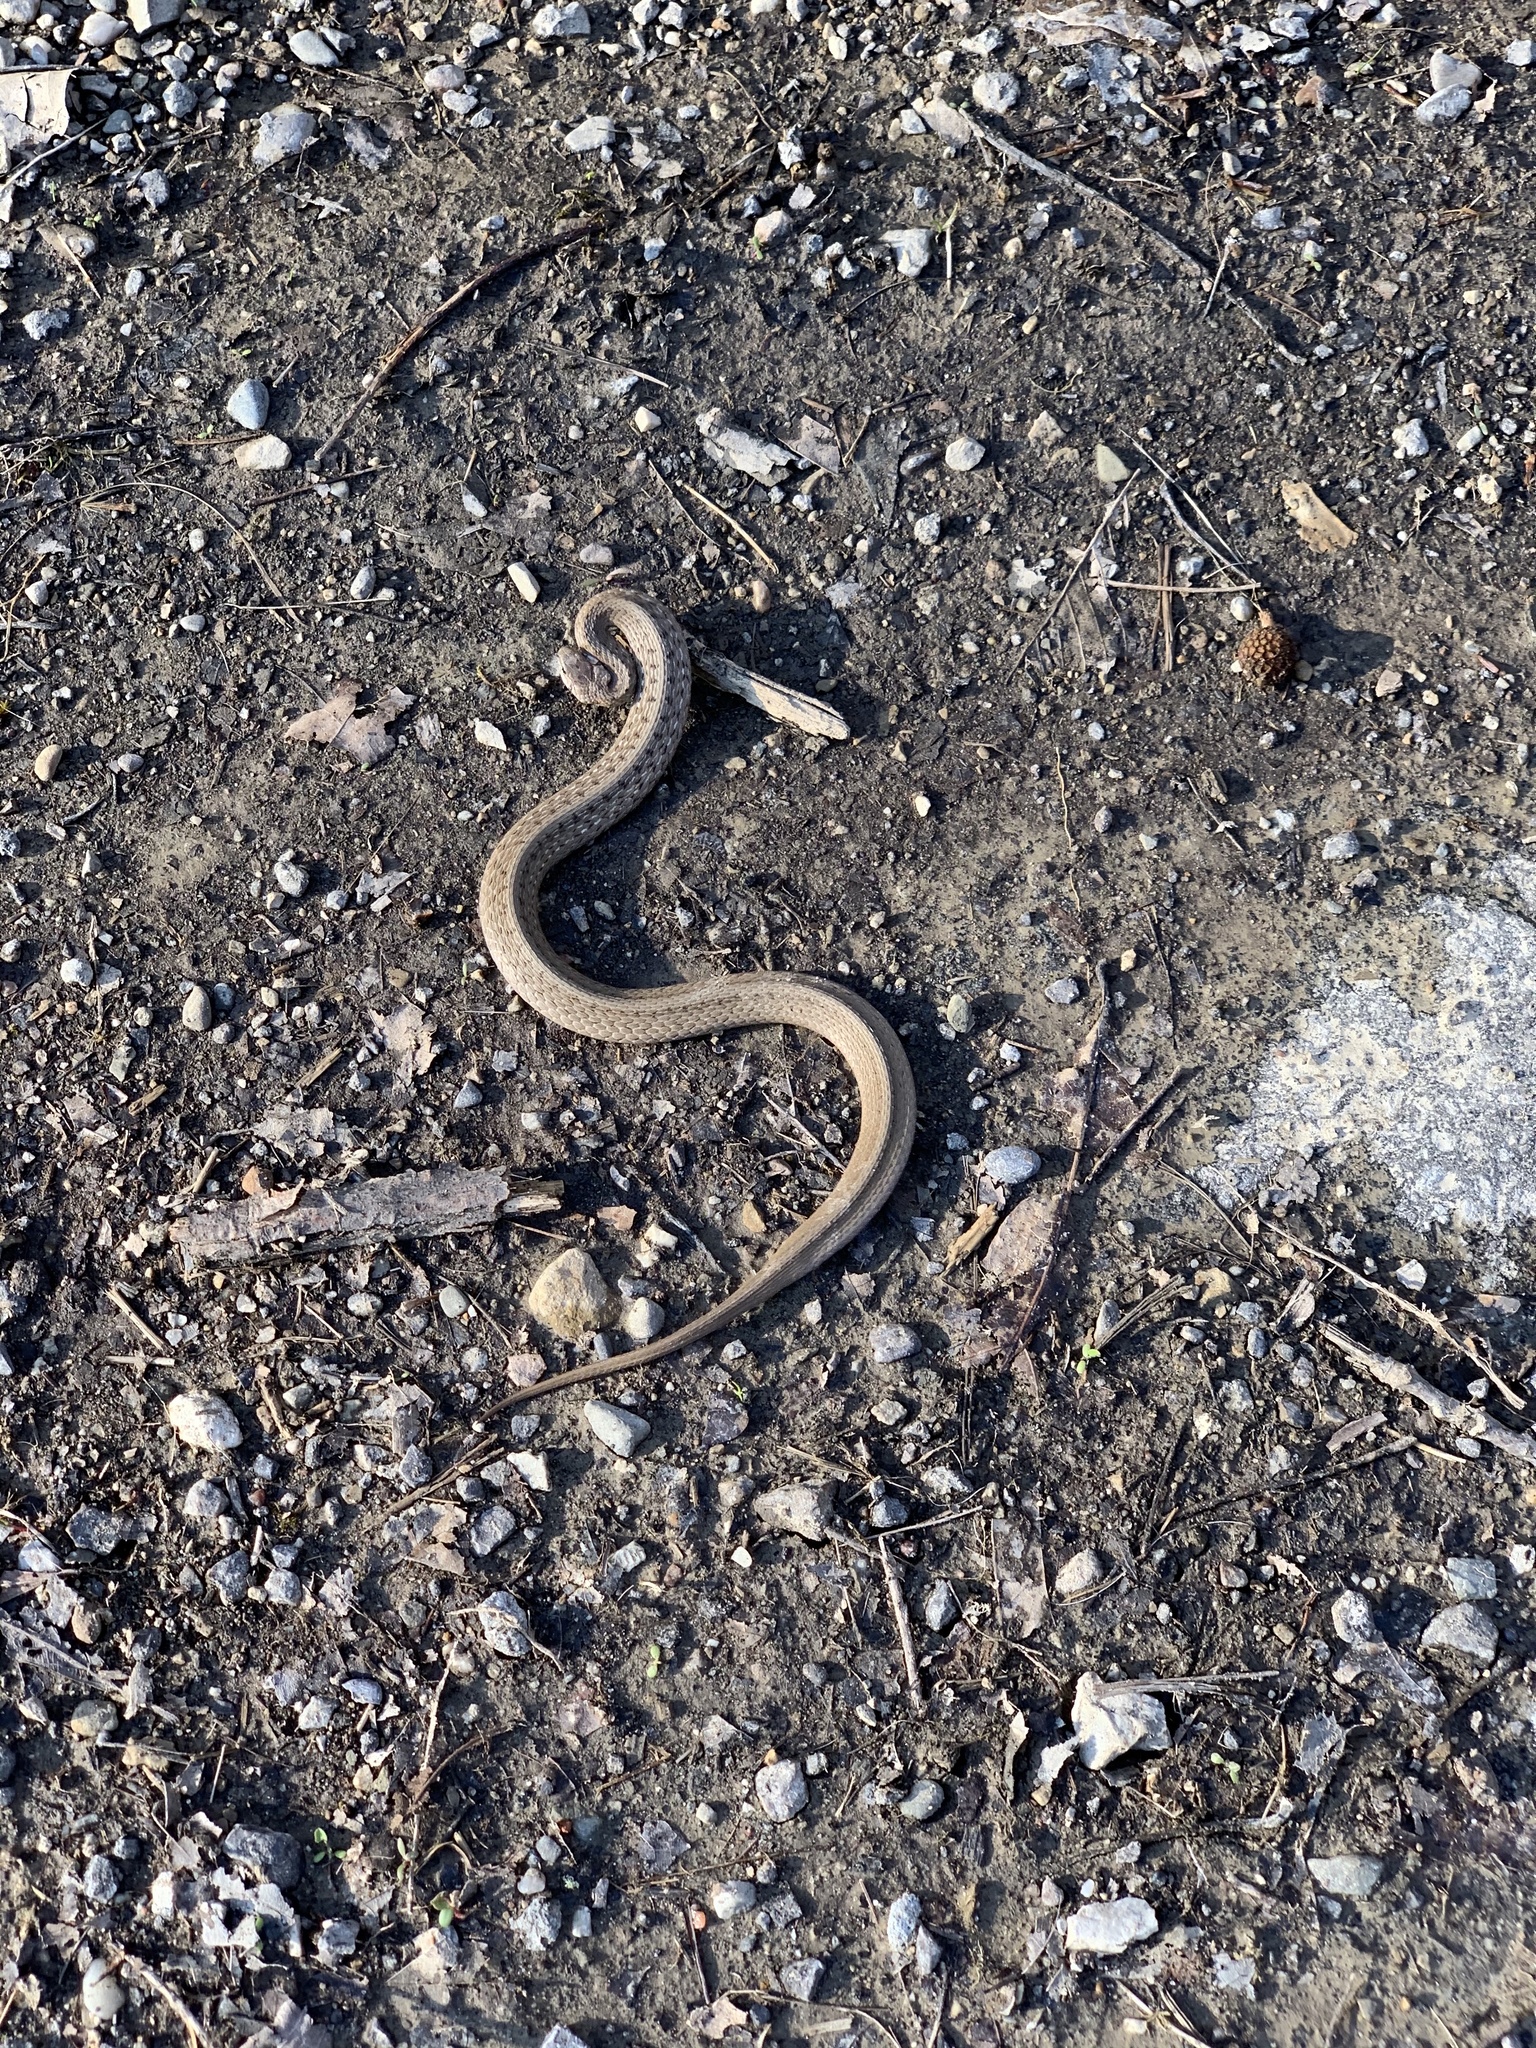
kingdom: Animalia
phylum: Chordata
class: Squamata
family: Colubridae
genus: Storeria
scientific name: Storeria dekayi
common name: (dekay’s) brown snake
